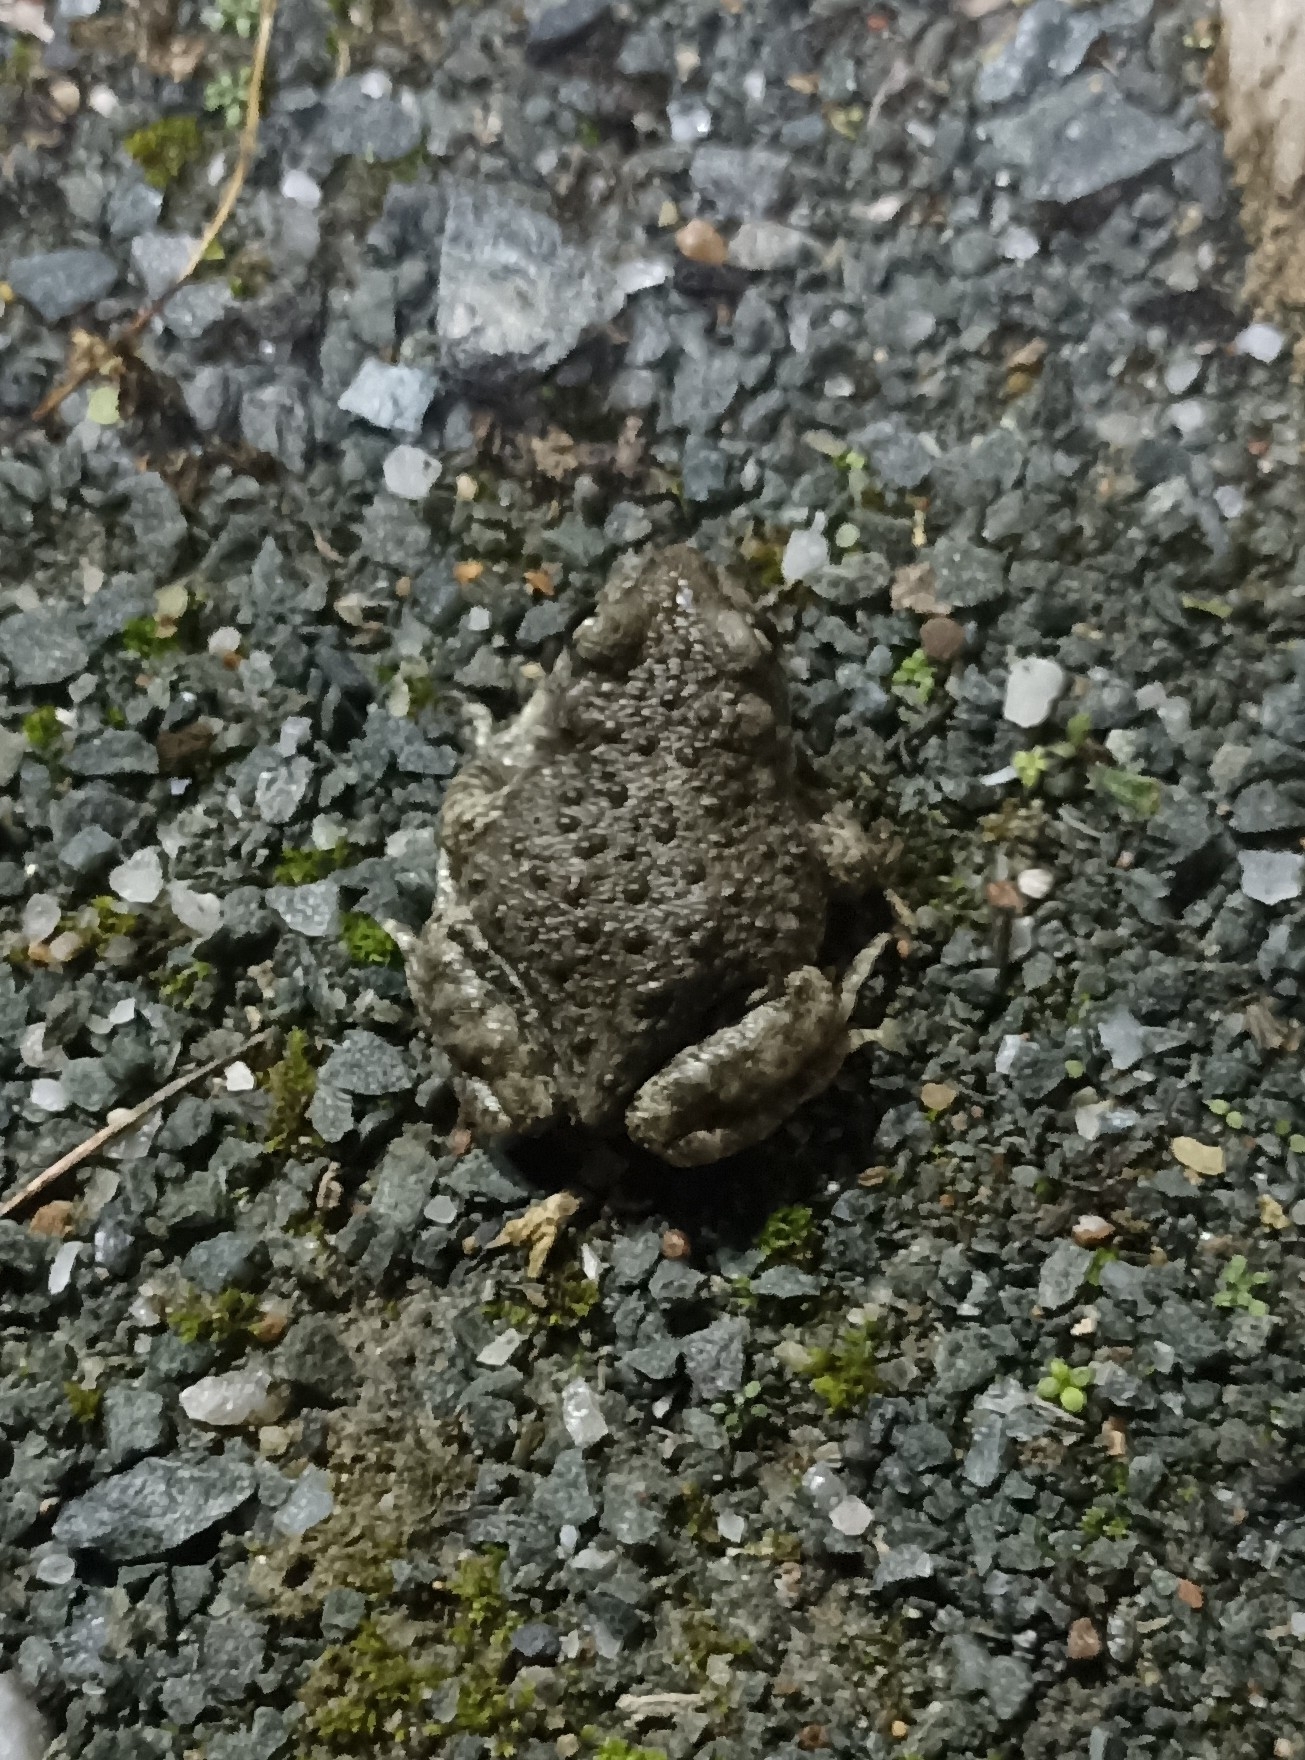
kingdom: Animalia
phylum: Chordata
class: Amphibia
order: Anura
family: Alytidae
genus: Alytes
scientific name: Alytes obstetricans
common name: Midwife toad
